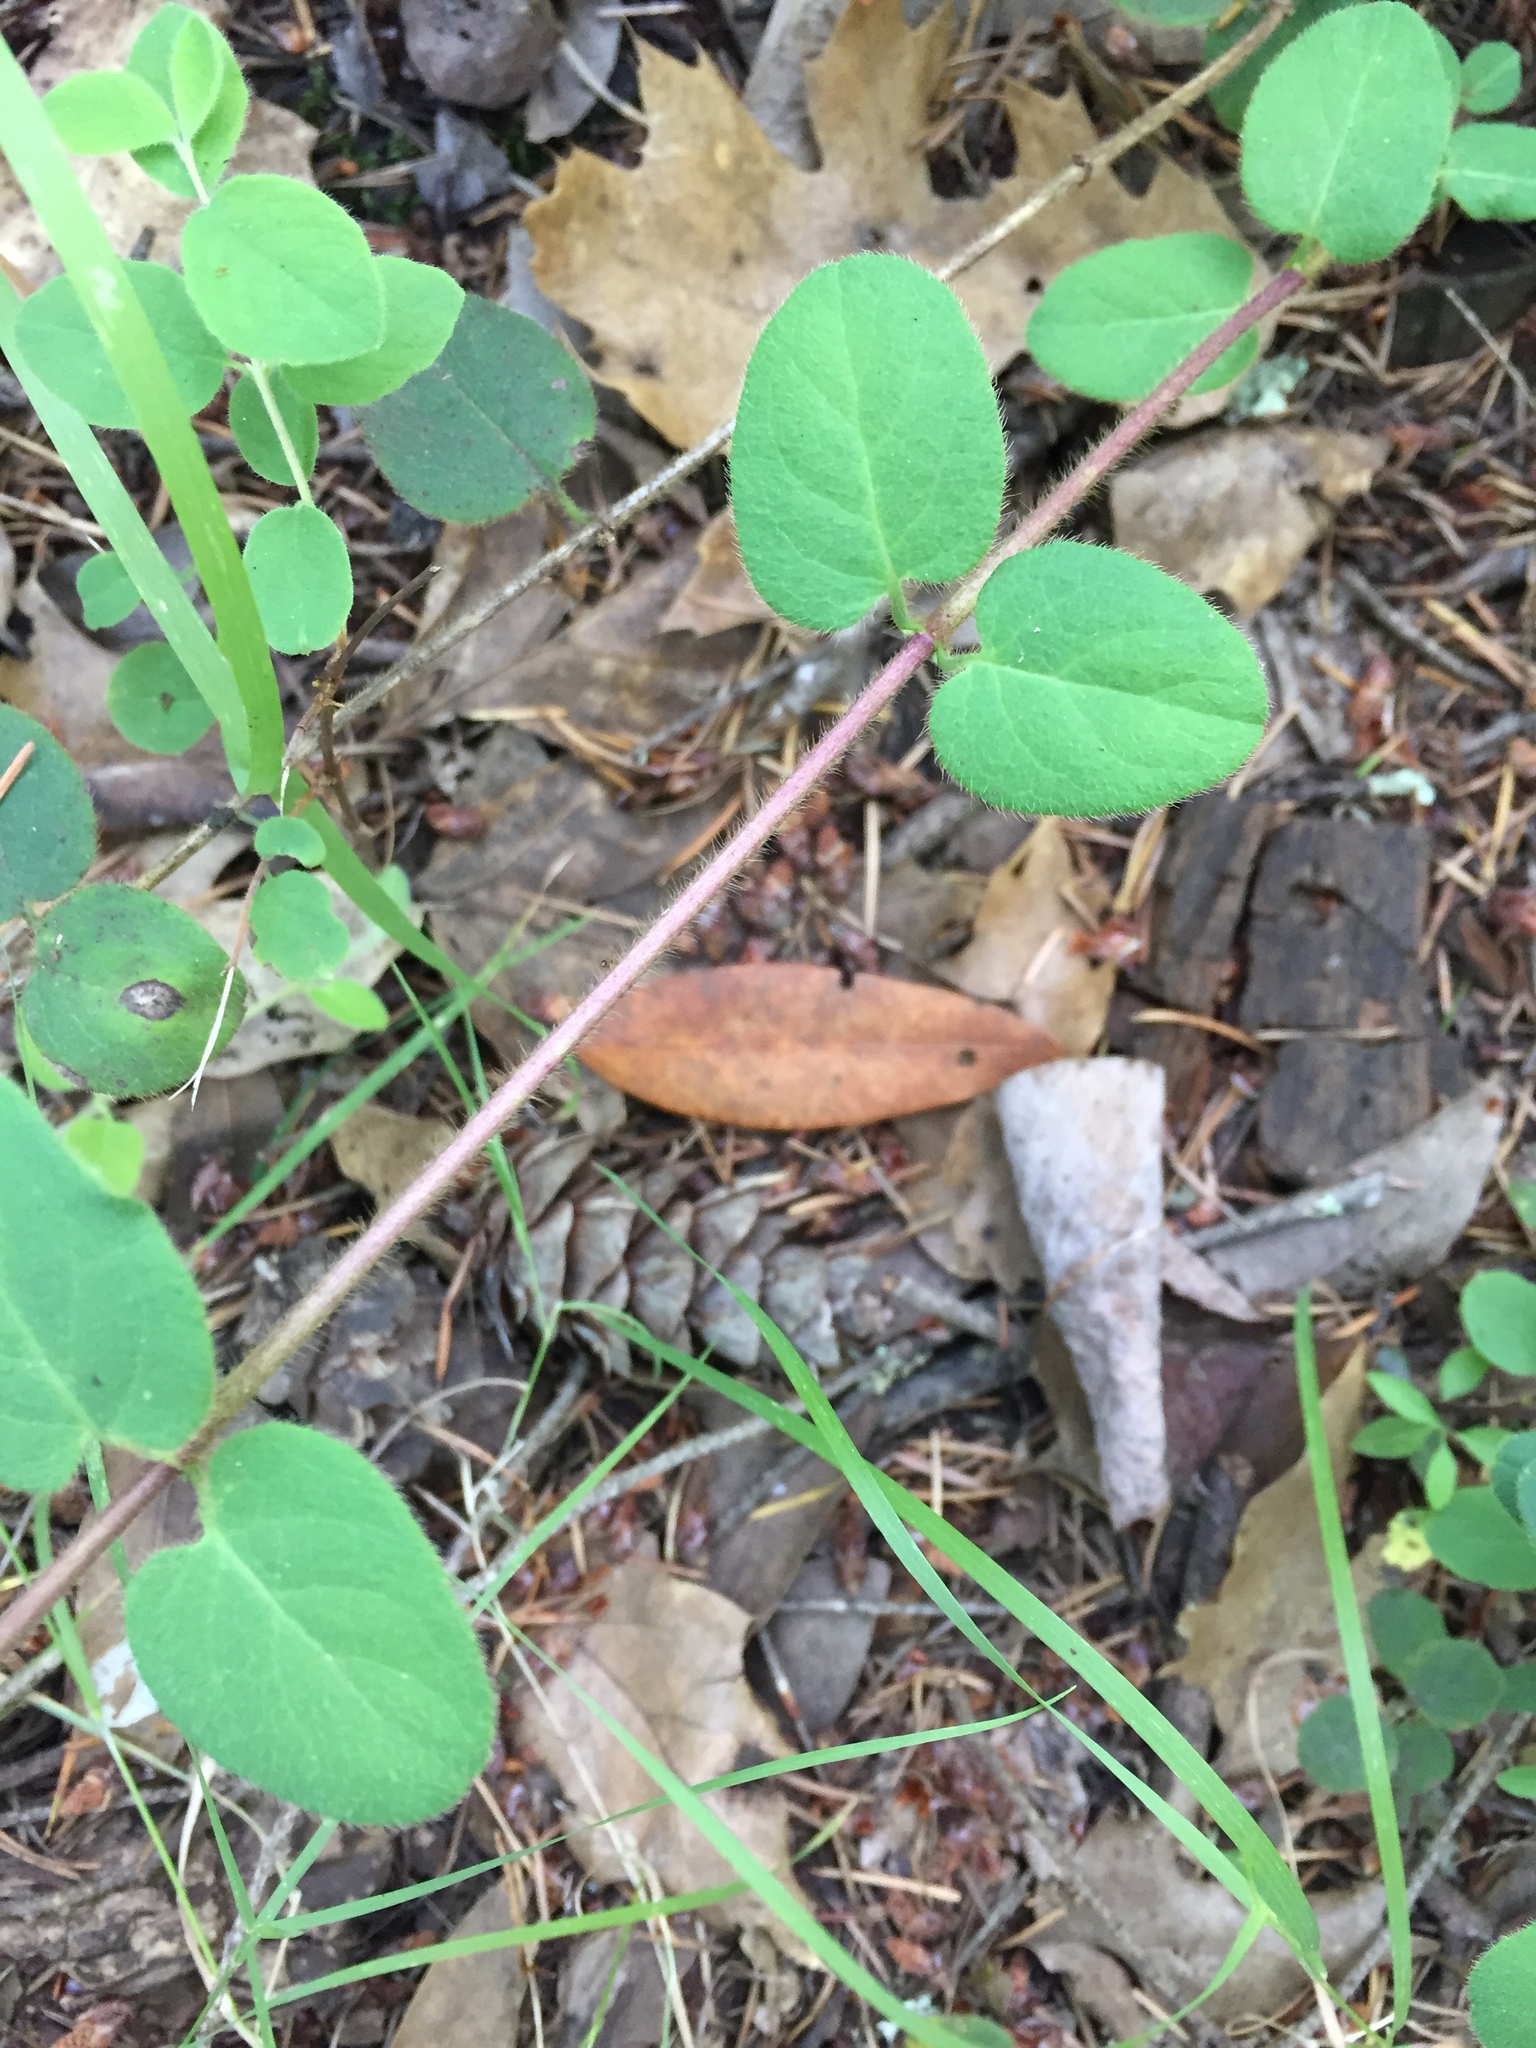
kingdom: Plantae
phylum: Tracheophyta
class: Magnoliopsida
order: Dipsacales
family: Caprifoliaceae
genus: Lonicera
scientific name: Lonicera hispidula
